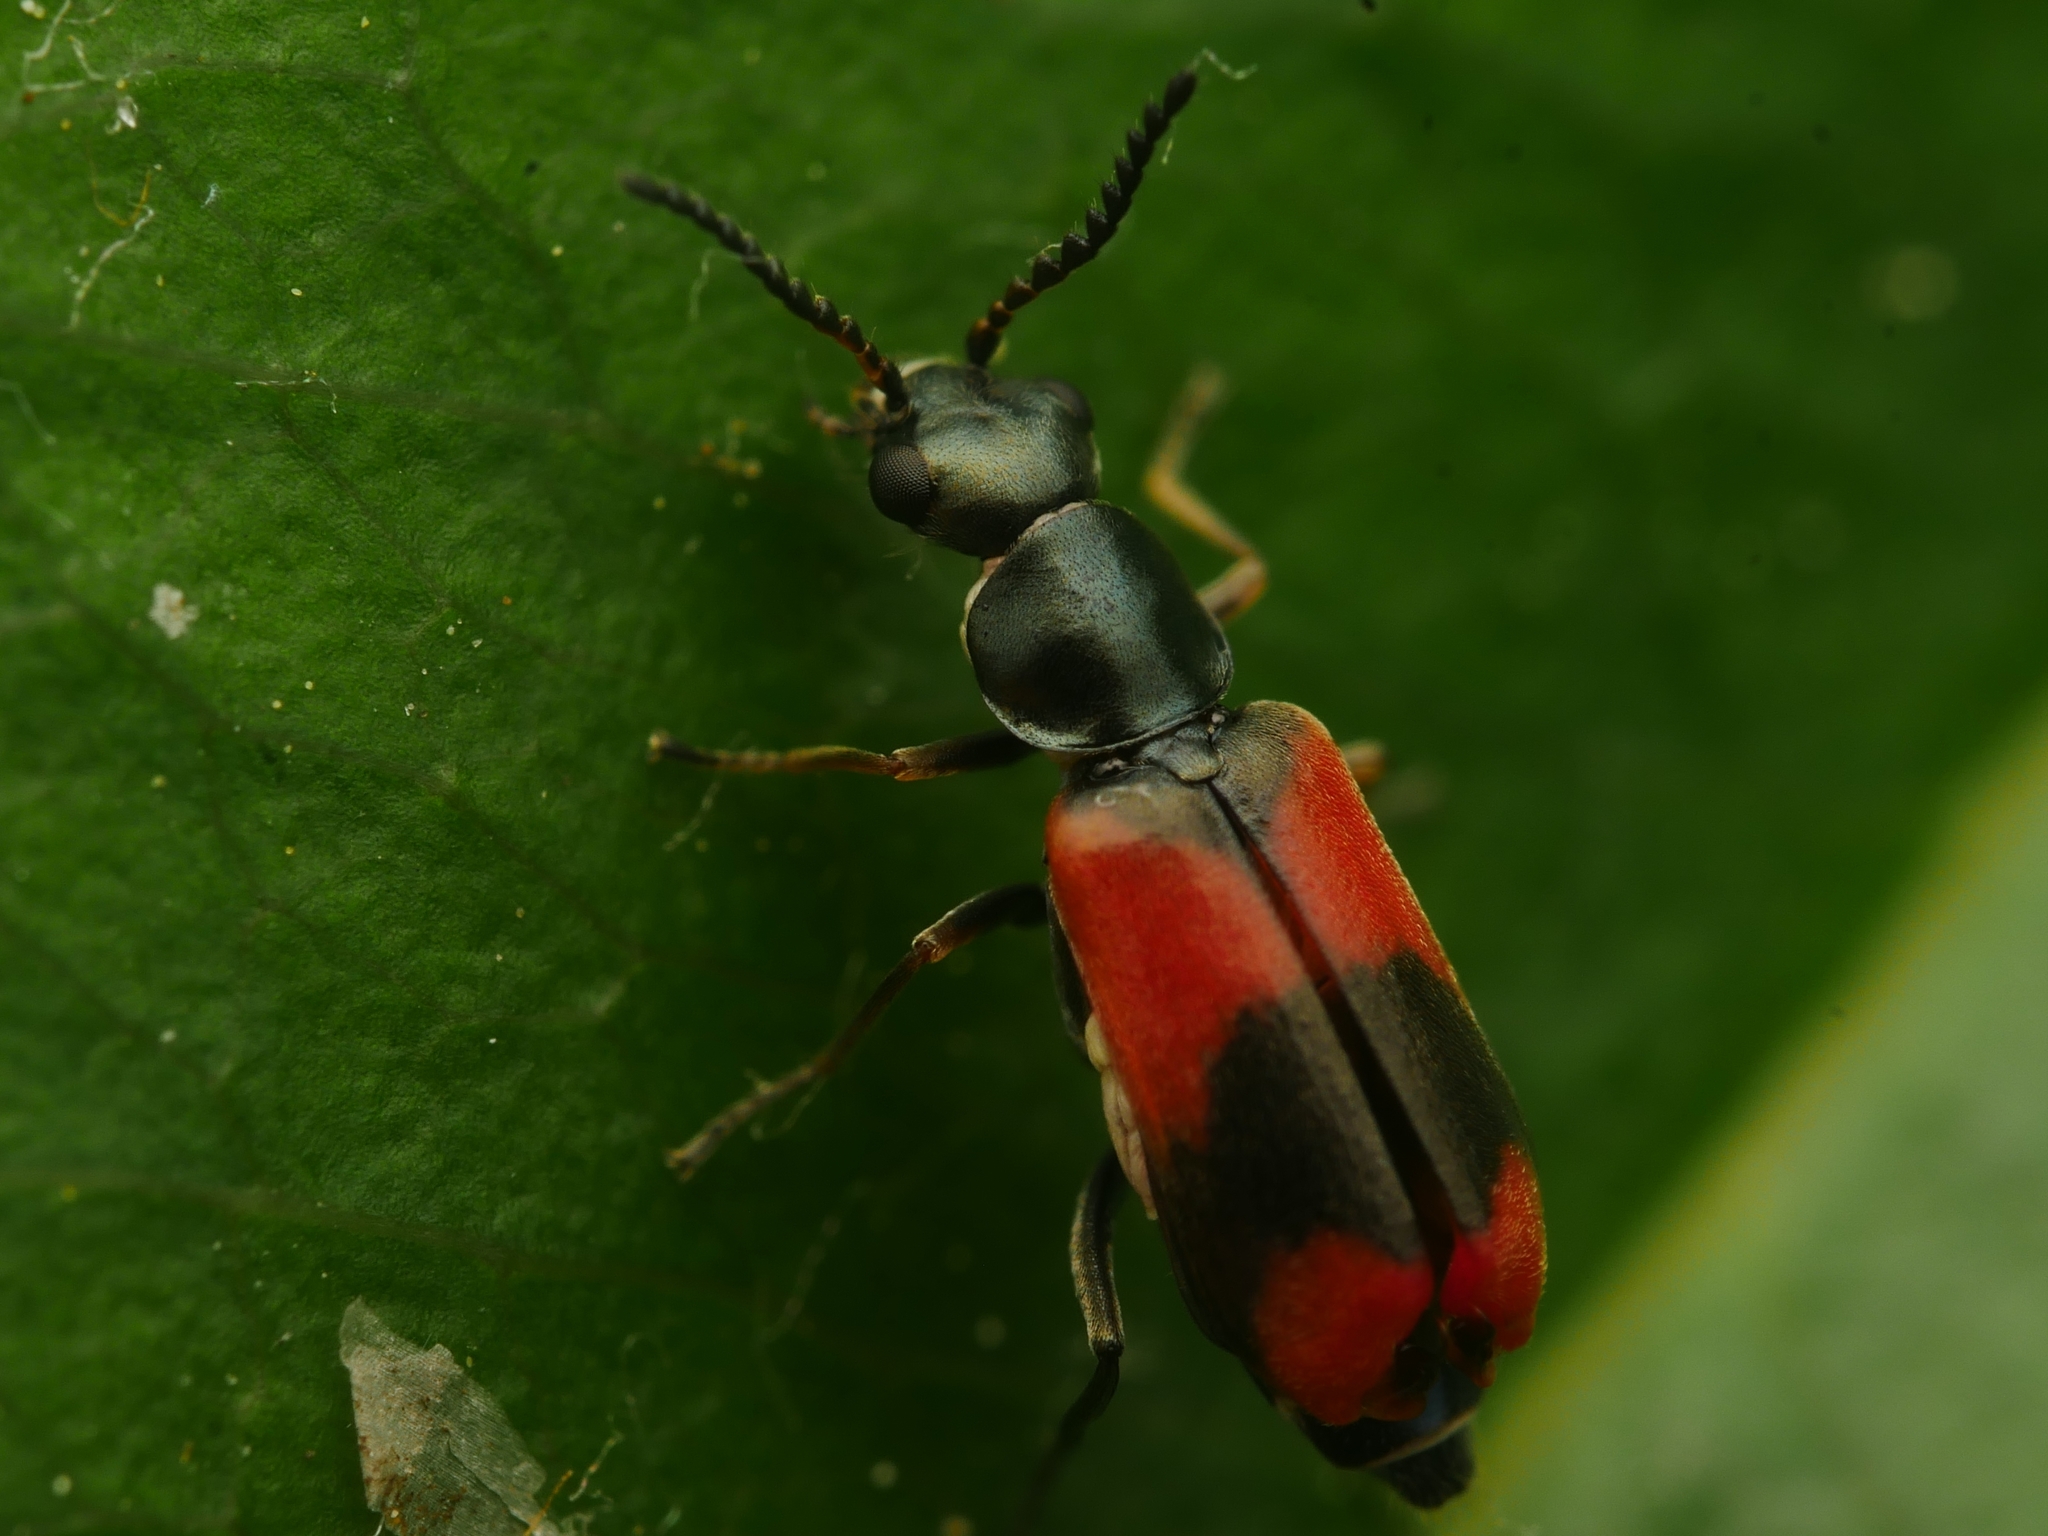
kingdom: Animalia
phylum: Arthropoda
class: Insecta
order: Coleoptera
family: Melyridae
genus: Anthocomus
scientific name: Anthocomus equestris
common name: Black-banded soft-winged flower beetle
